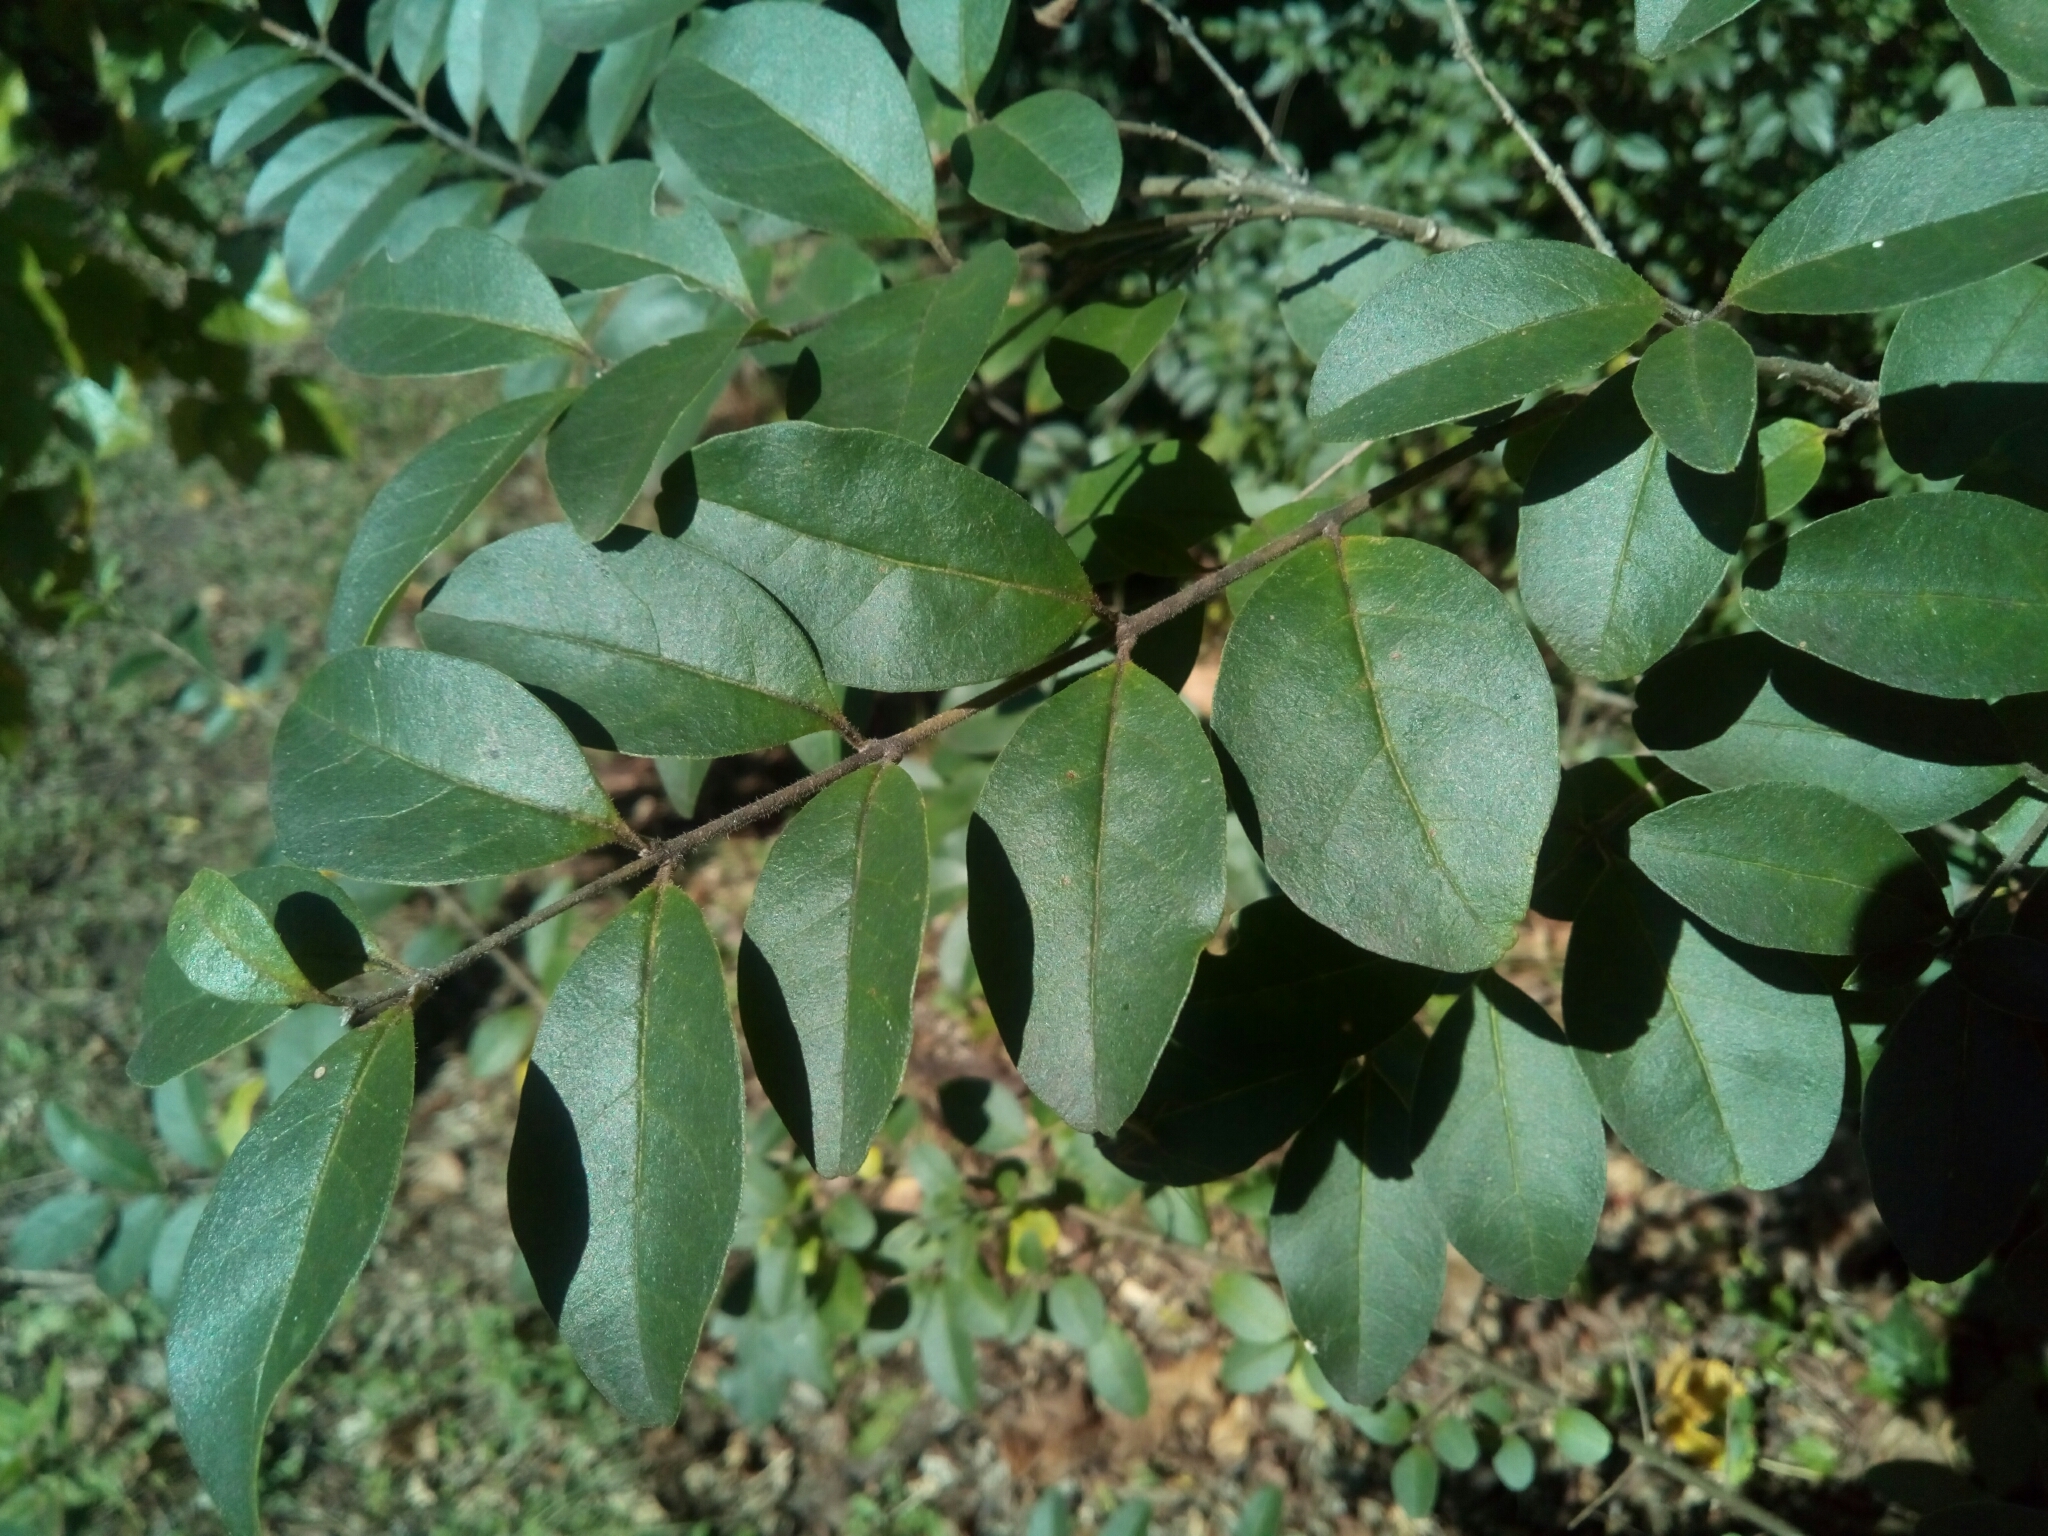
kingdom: Plantae
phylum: Tracheophyta
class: Magnoliopsida
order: Lamiales
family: Oleaceae
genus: Ligustrum
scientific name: Ligustrum sinense
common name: Chinese privet
